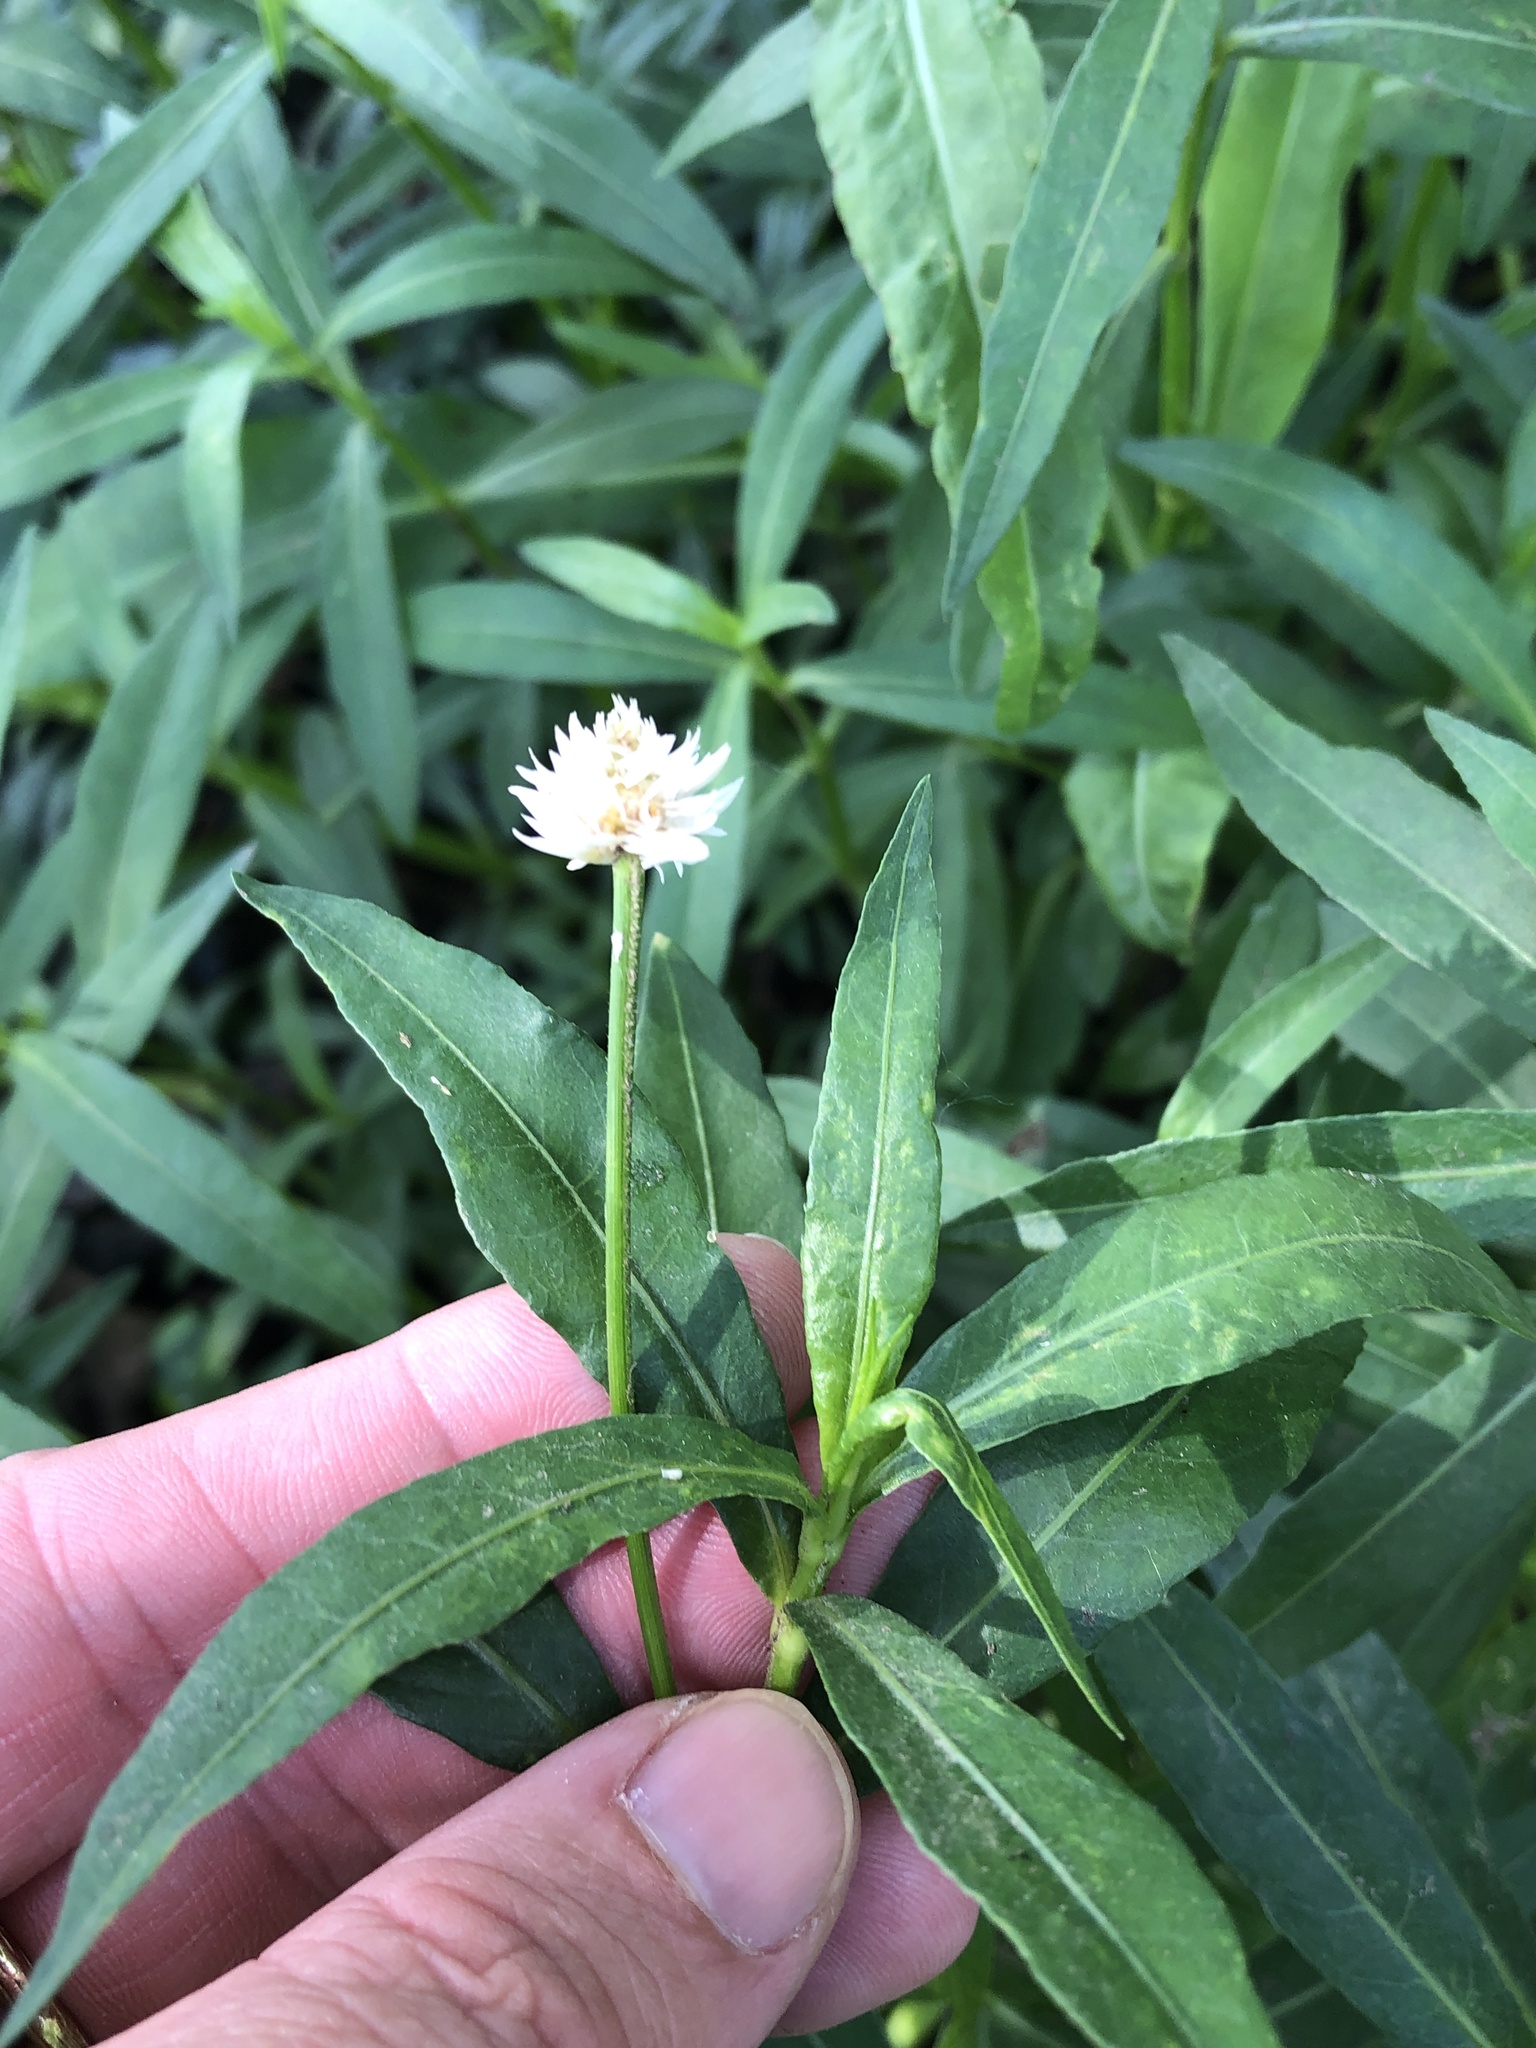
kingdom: Plantae
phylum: Tracheophyta
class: Magnoliopsida
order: Caryophyllales
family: Amaranthaceae
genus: Alternanthera
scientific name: Alternanthera philoxeroides
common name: Alligatorweed
